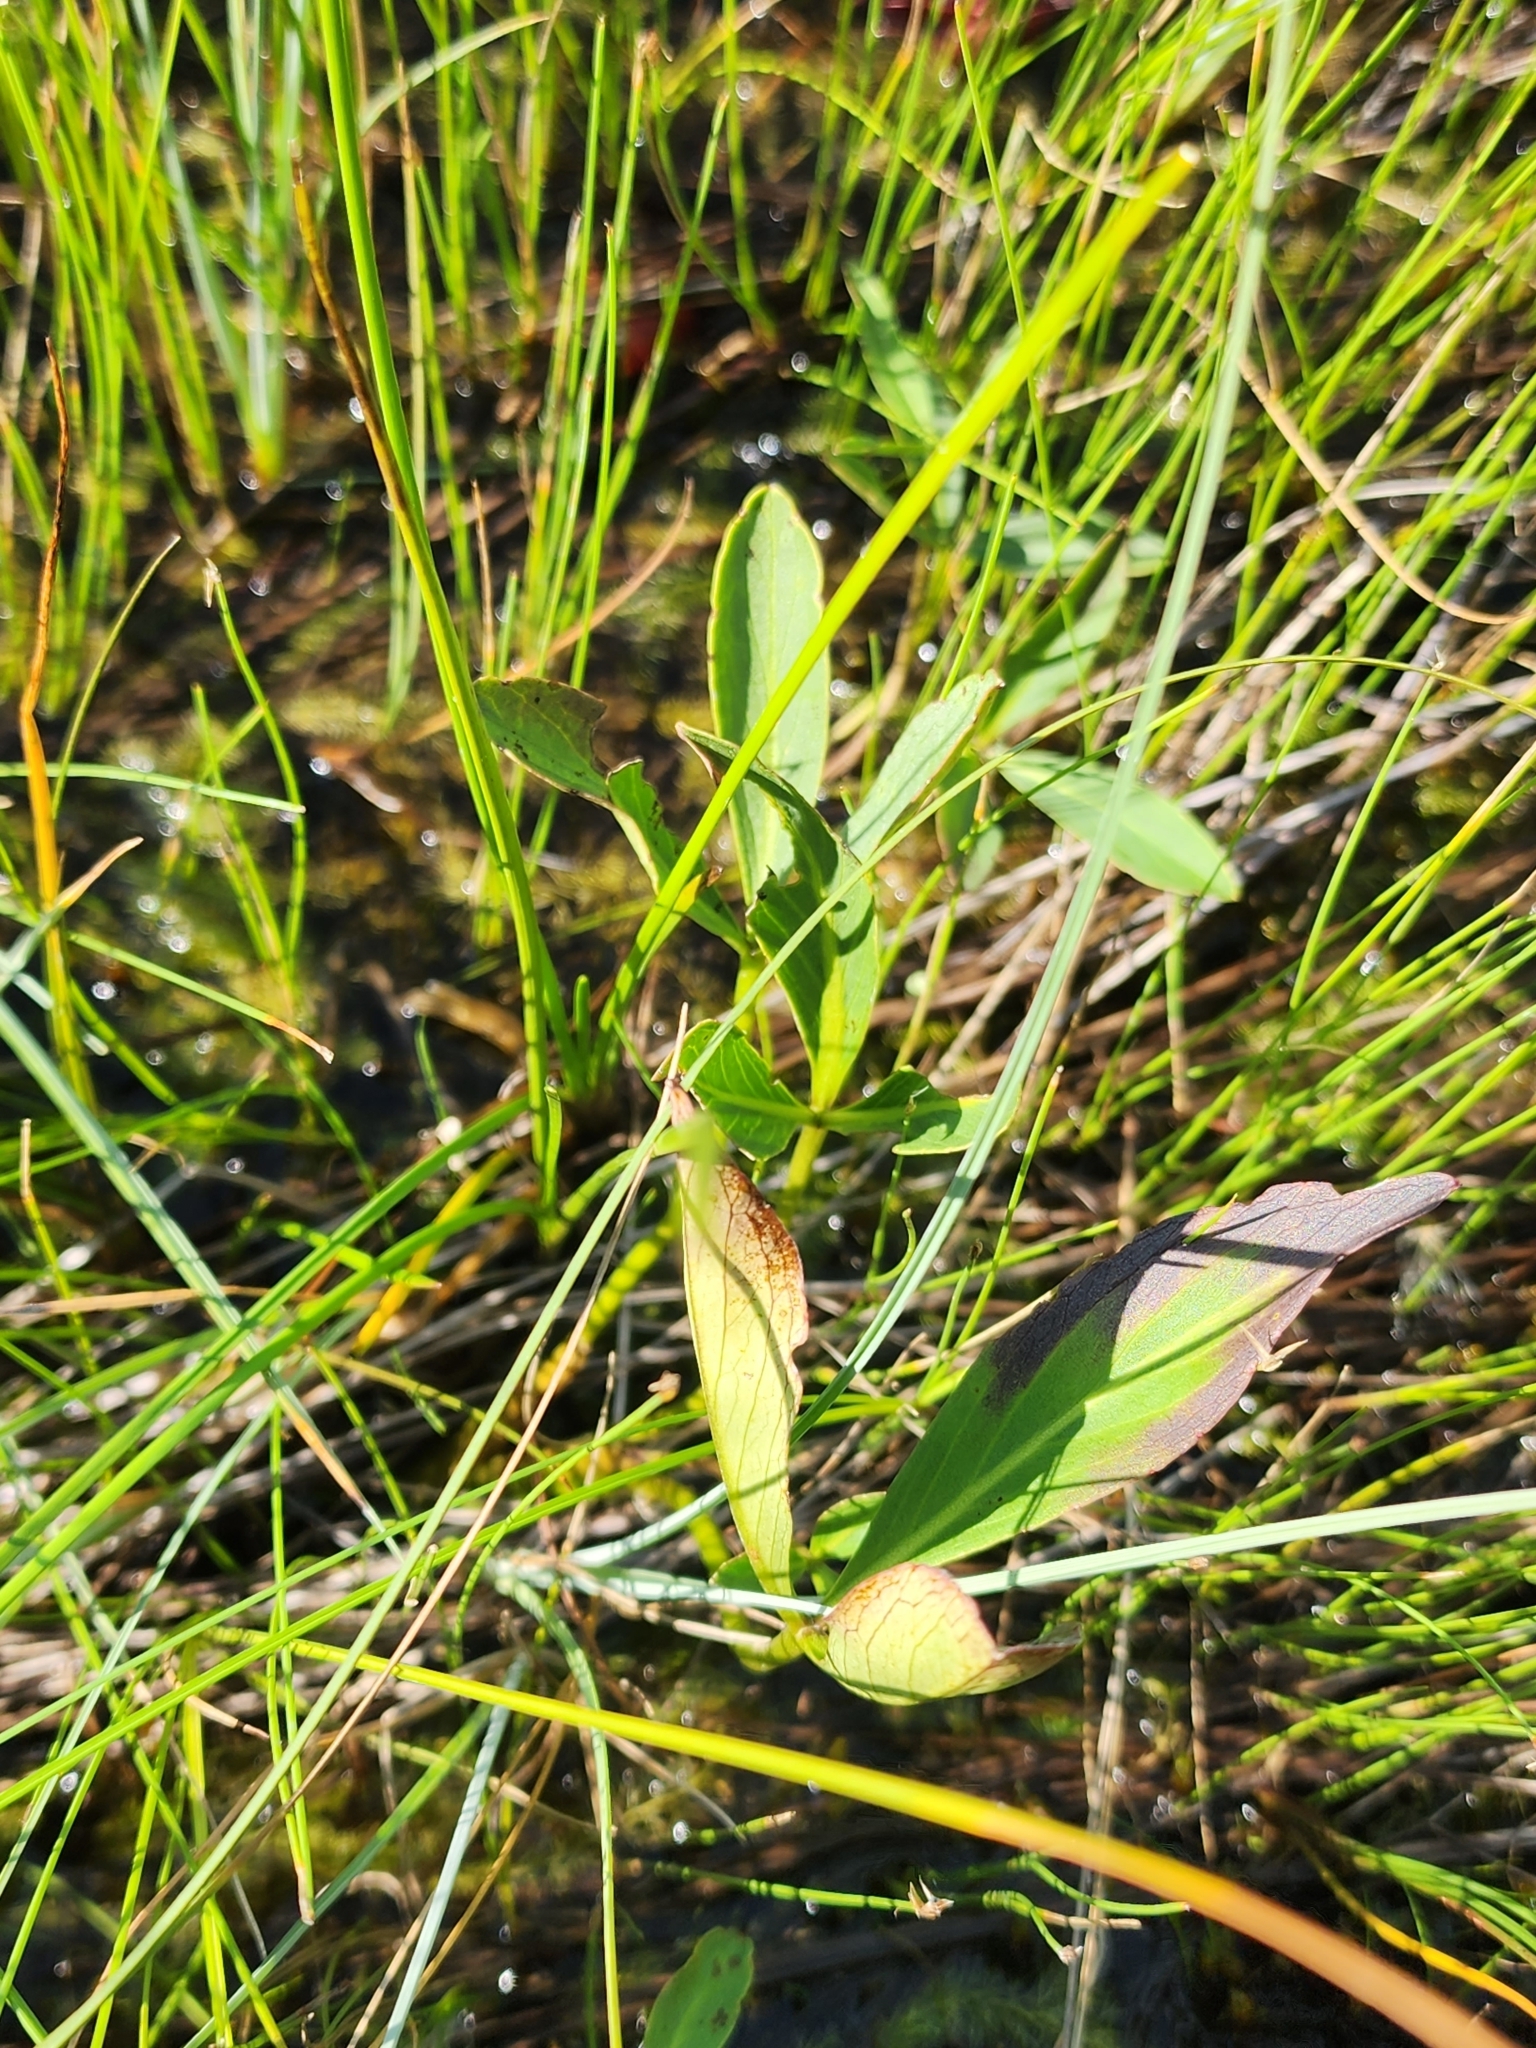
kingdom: Plantae
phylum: Tracheophyta
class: Magnoliopsida
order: Asterales
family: Menyanthaceae
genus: Menyanthes
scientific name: Menyanthes trifoliata
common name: Bogbean
